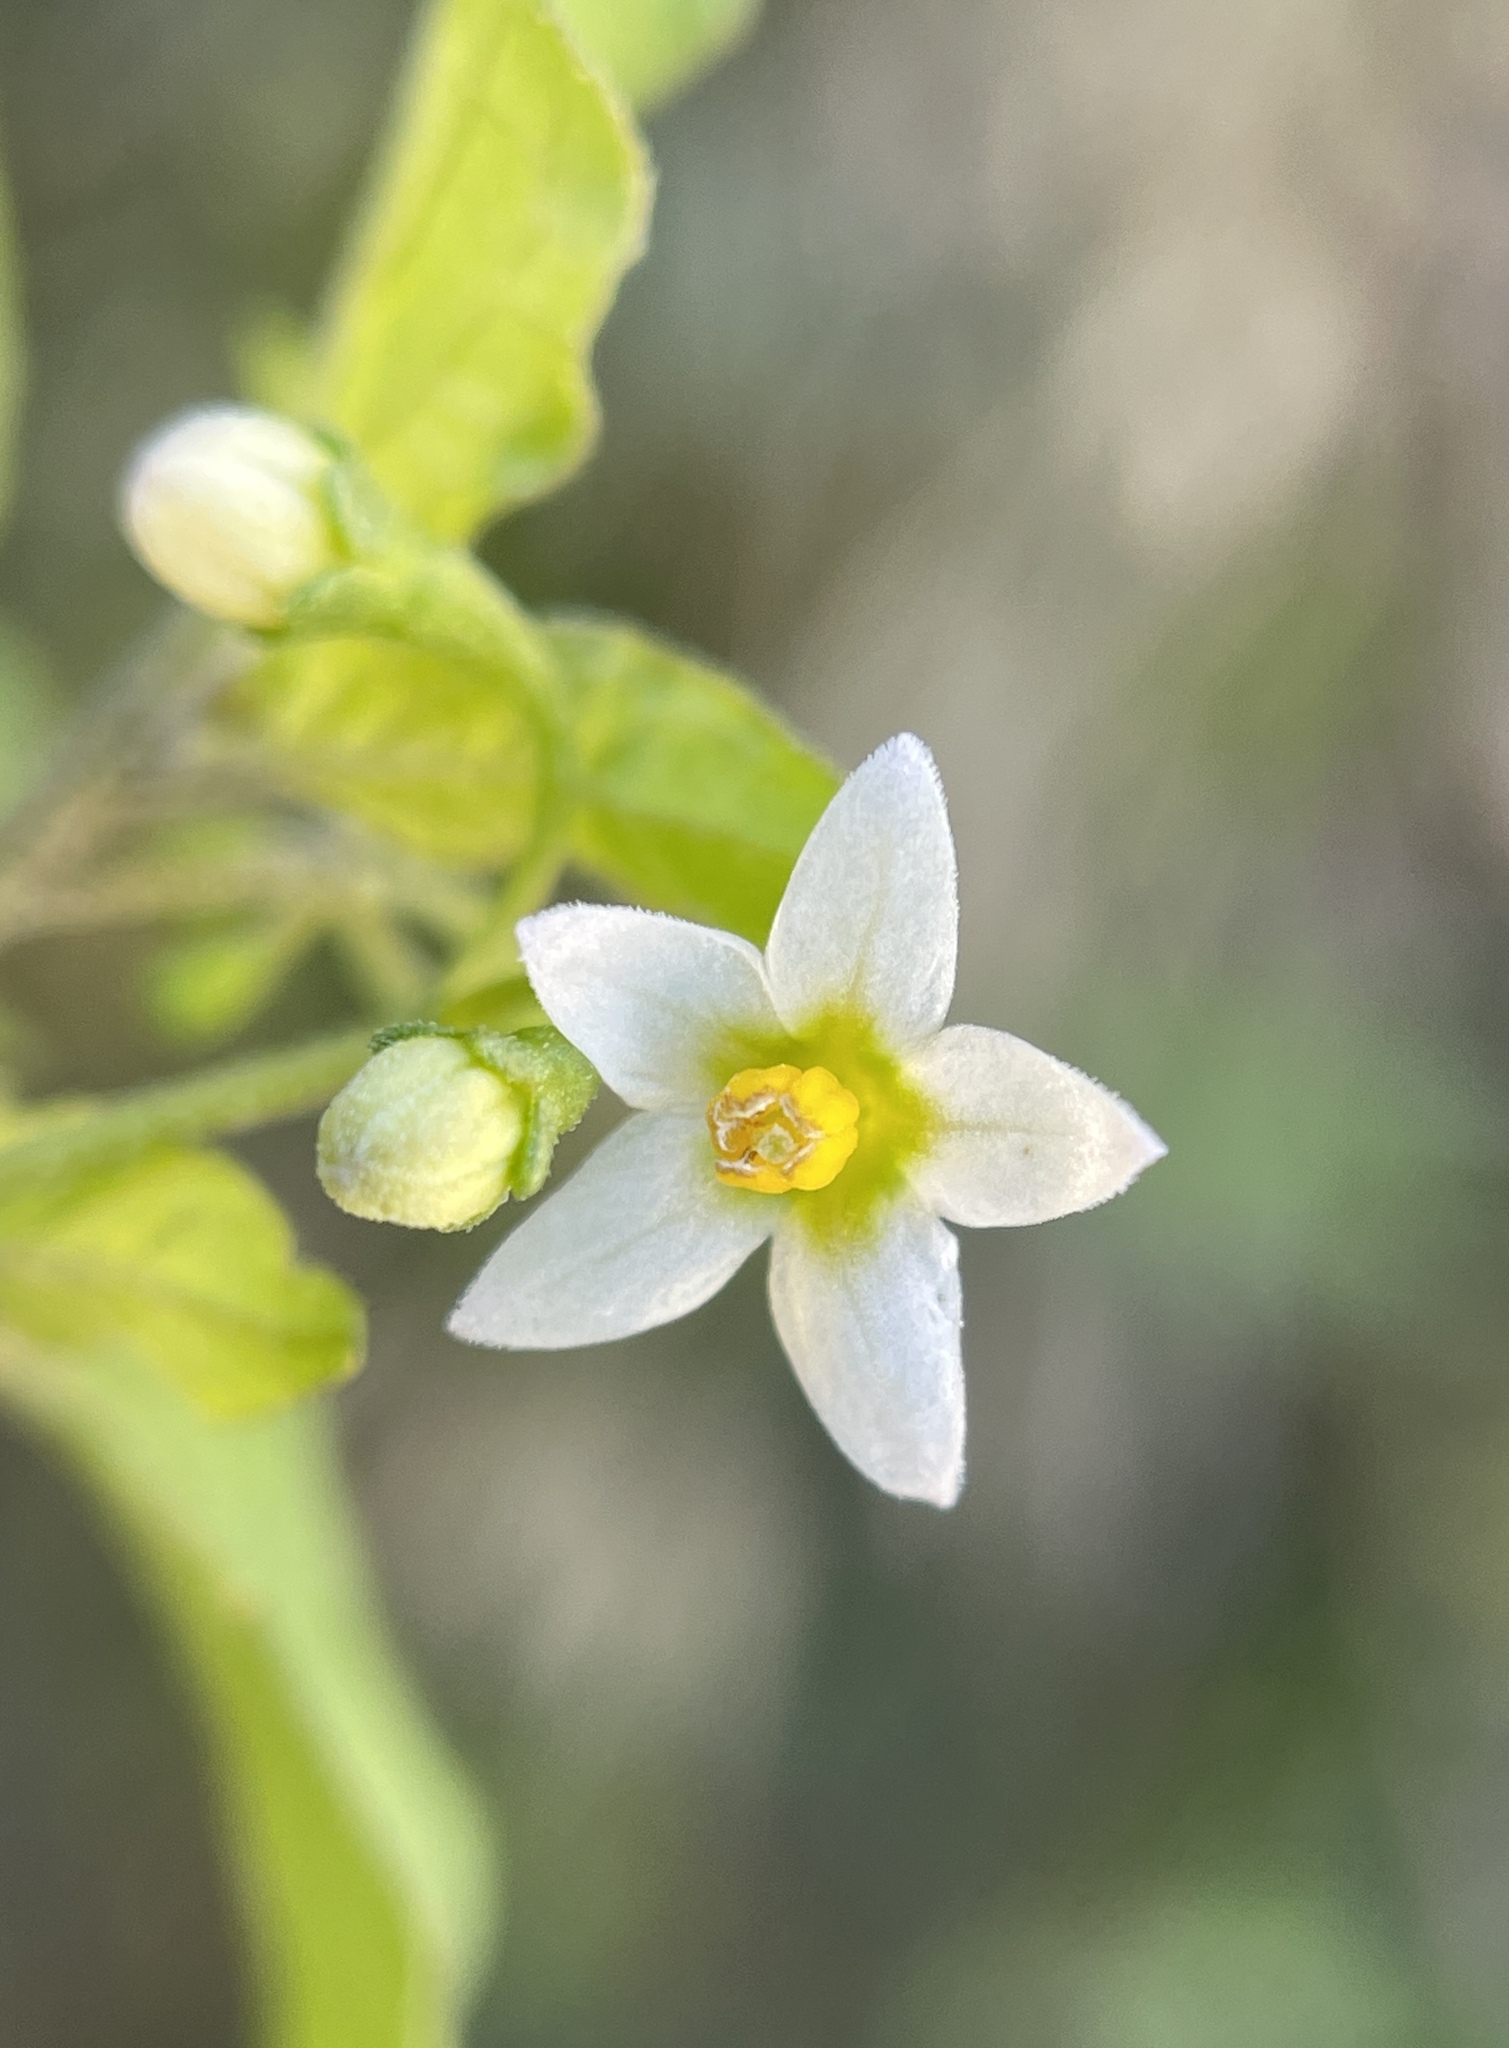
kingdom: Plantae
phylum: Tracheophyta
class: Magnoliopsida
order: Solanales
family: Solanaceae
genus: Solanum
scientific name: Solanum americanum
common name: American black nightshade
